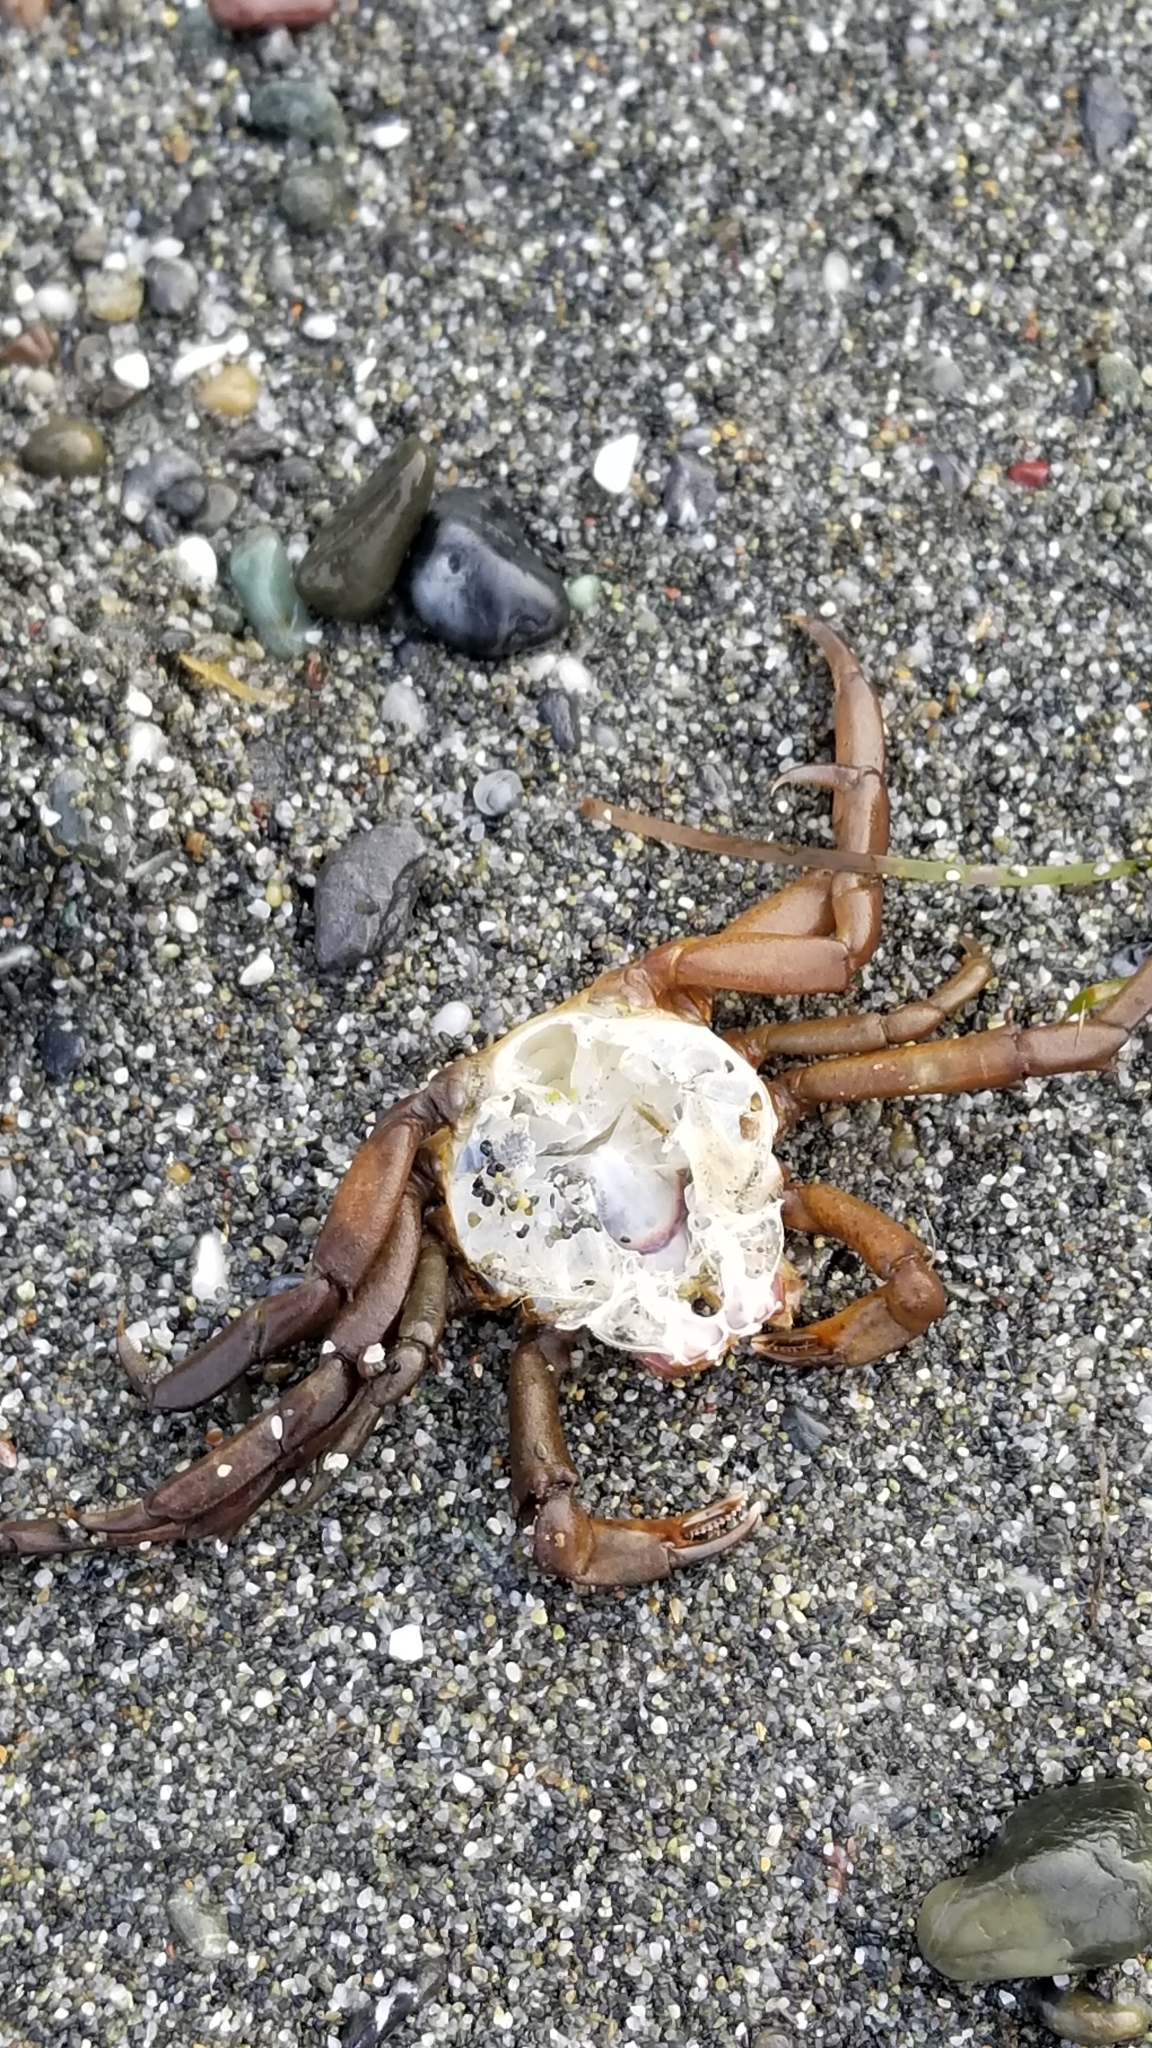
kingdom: Animalia
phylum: Arthropoda
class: Malacostraca
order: Decapoda
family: Epialtidae
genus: Pugettia
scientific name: Pugettia producta
